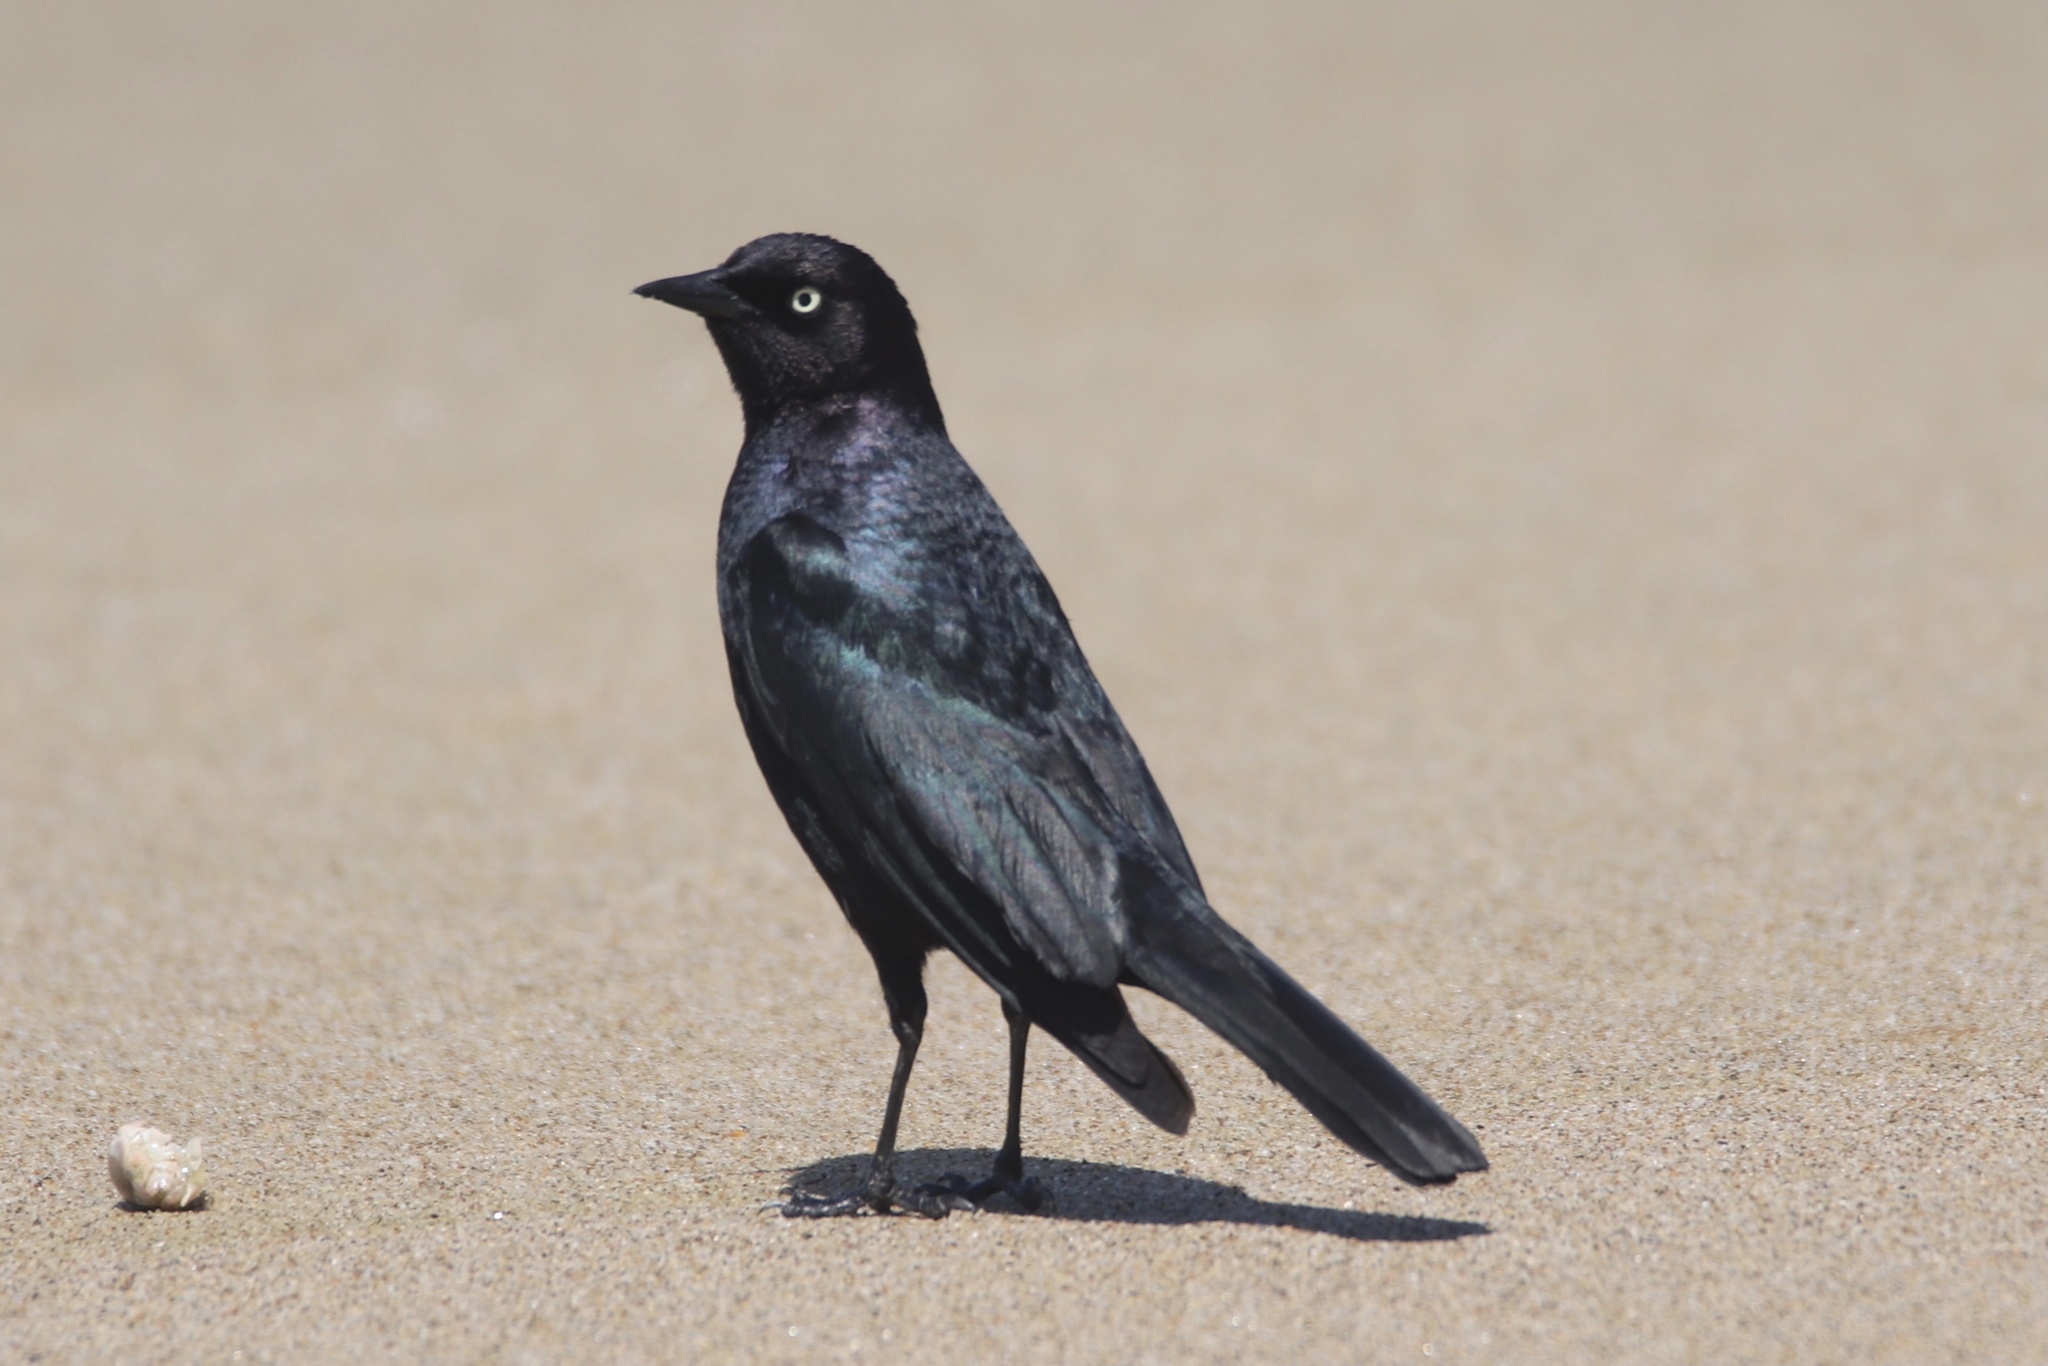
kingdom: Animalia
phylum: Chordata
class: Aves
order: Passeriformes
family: Icteridae
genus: Euphagus
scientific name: Euphagus cyanocephalus
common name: Brewer's blackbird
